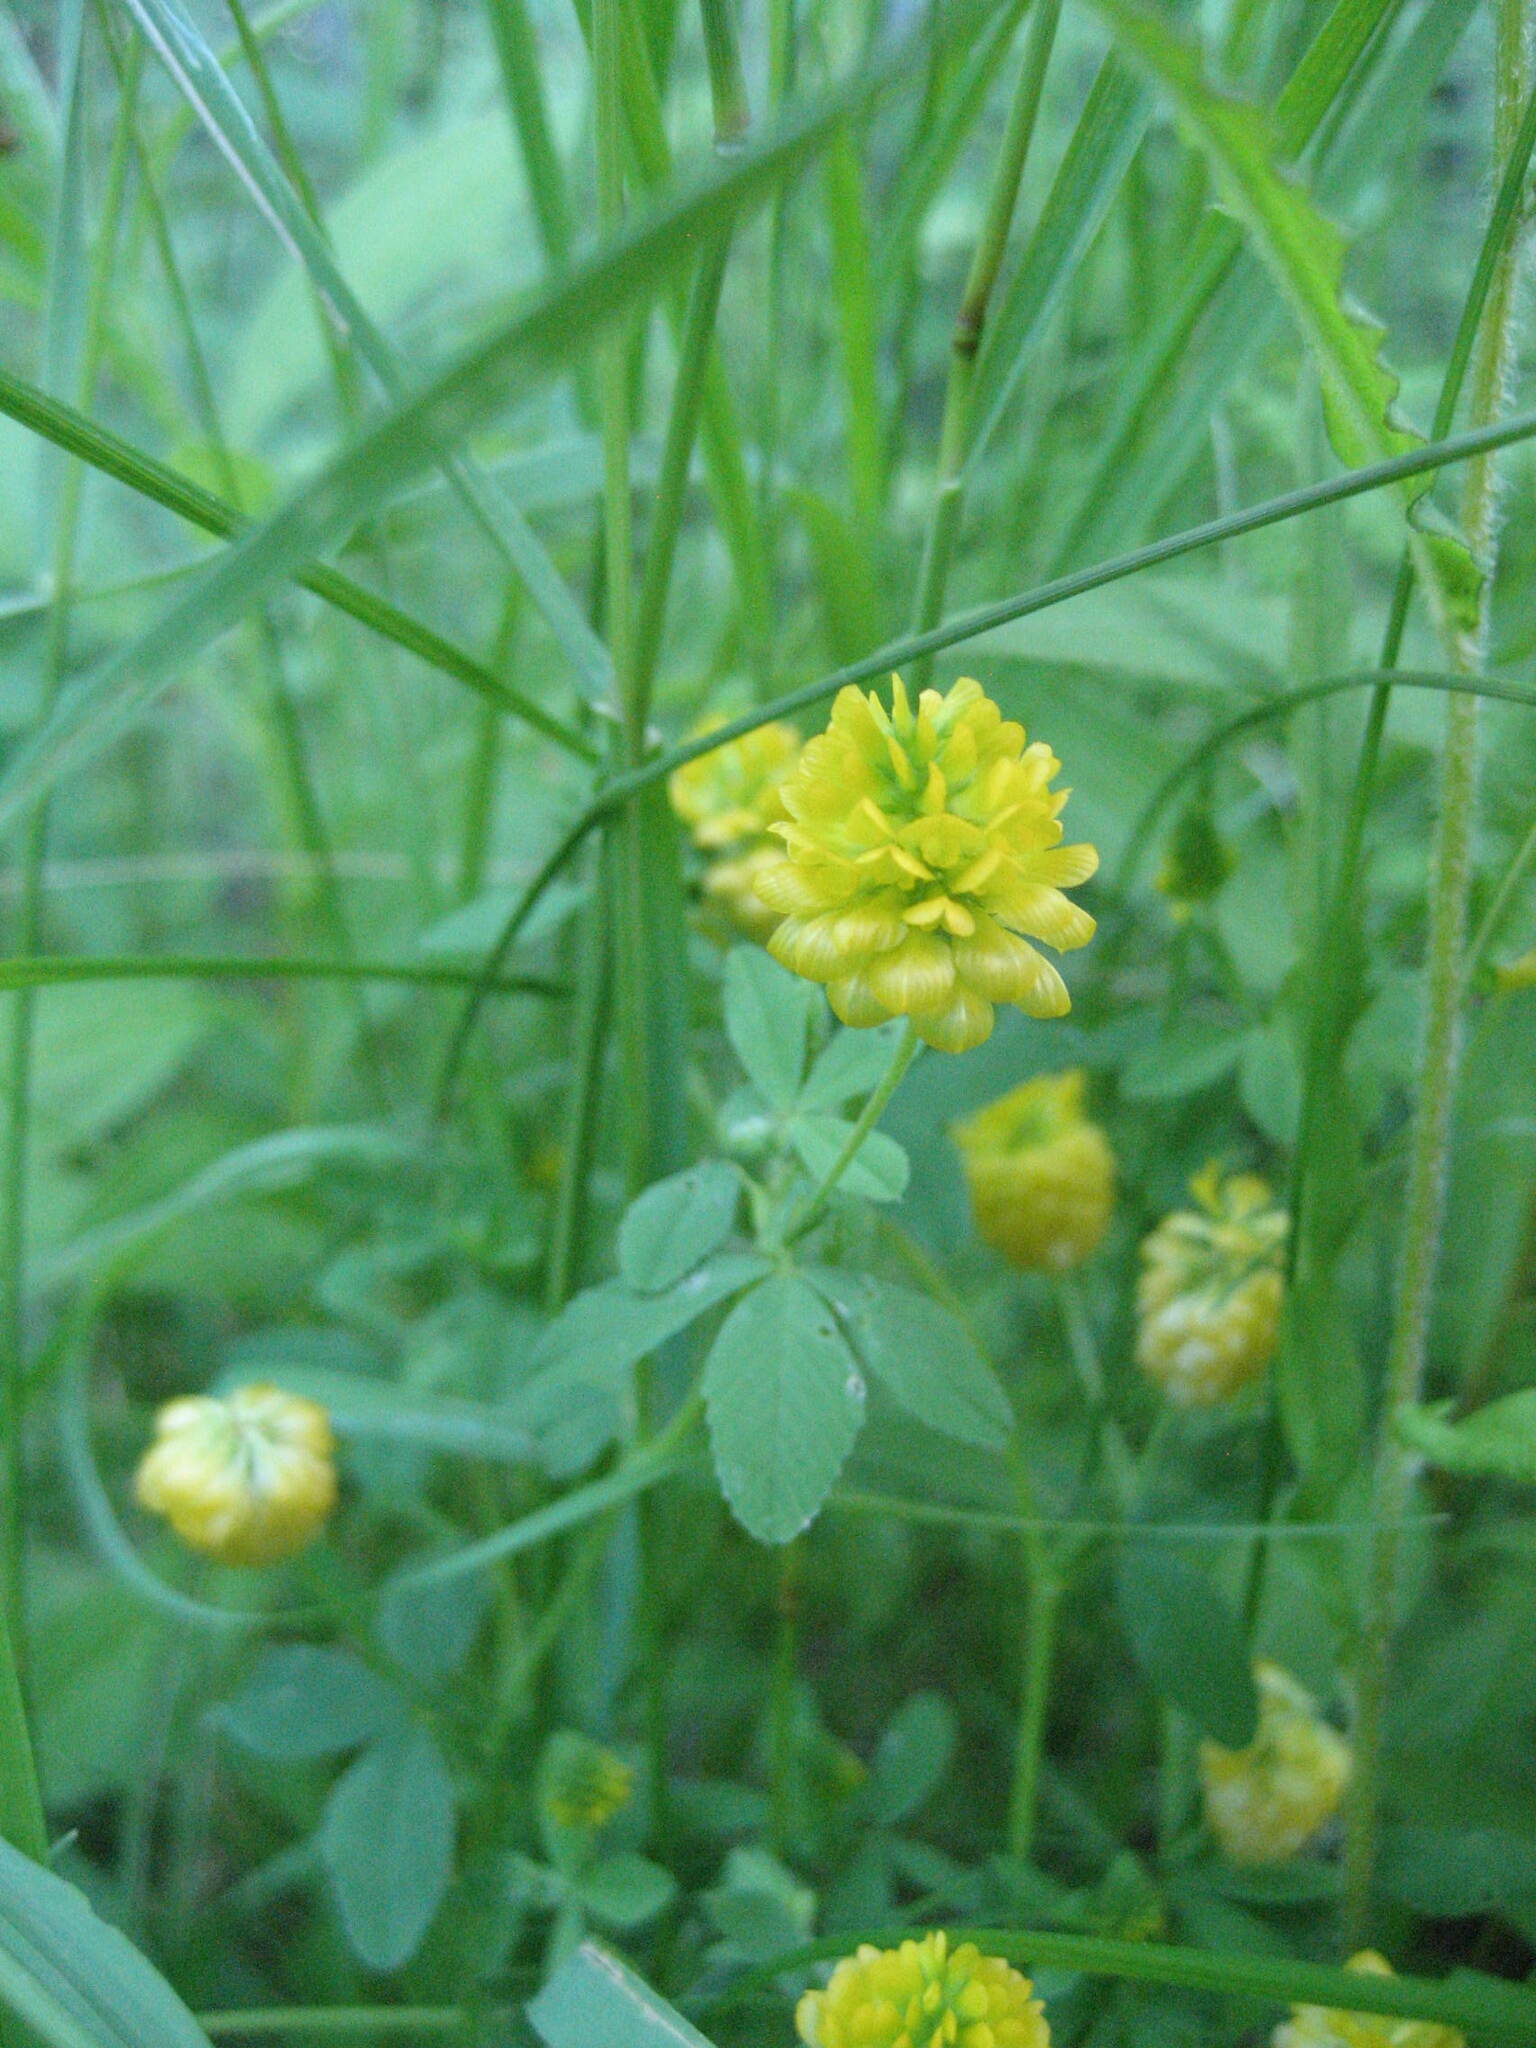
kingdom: Plantae
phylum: Tracheophyta
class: Magnoliopsida
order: Fabales
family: Fabaceae
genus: Trifolium
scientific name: Trifolium aureum
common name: Golden clover
